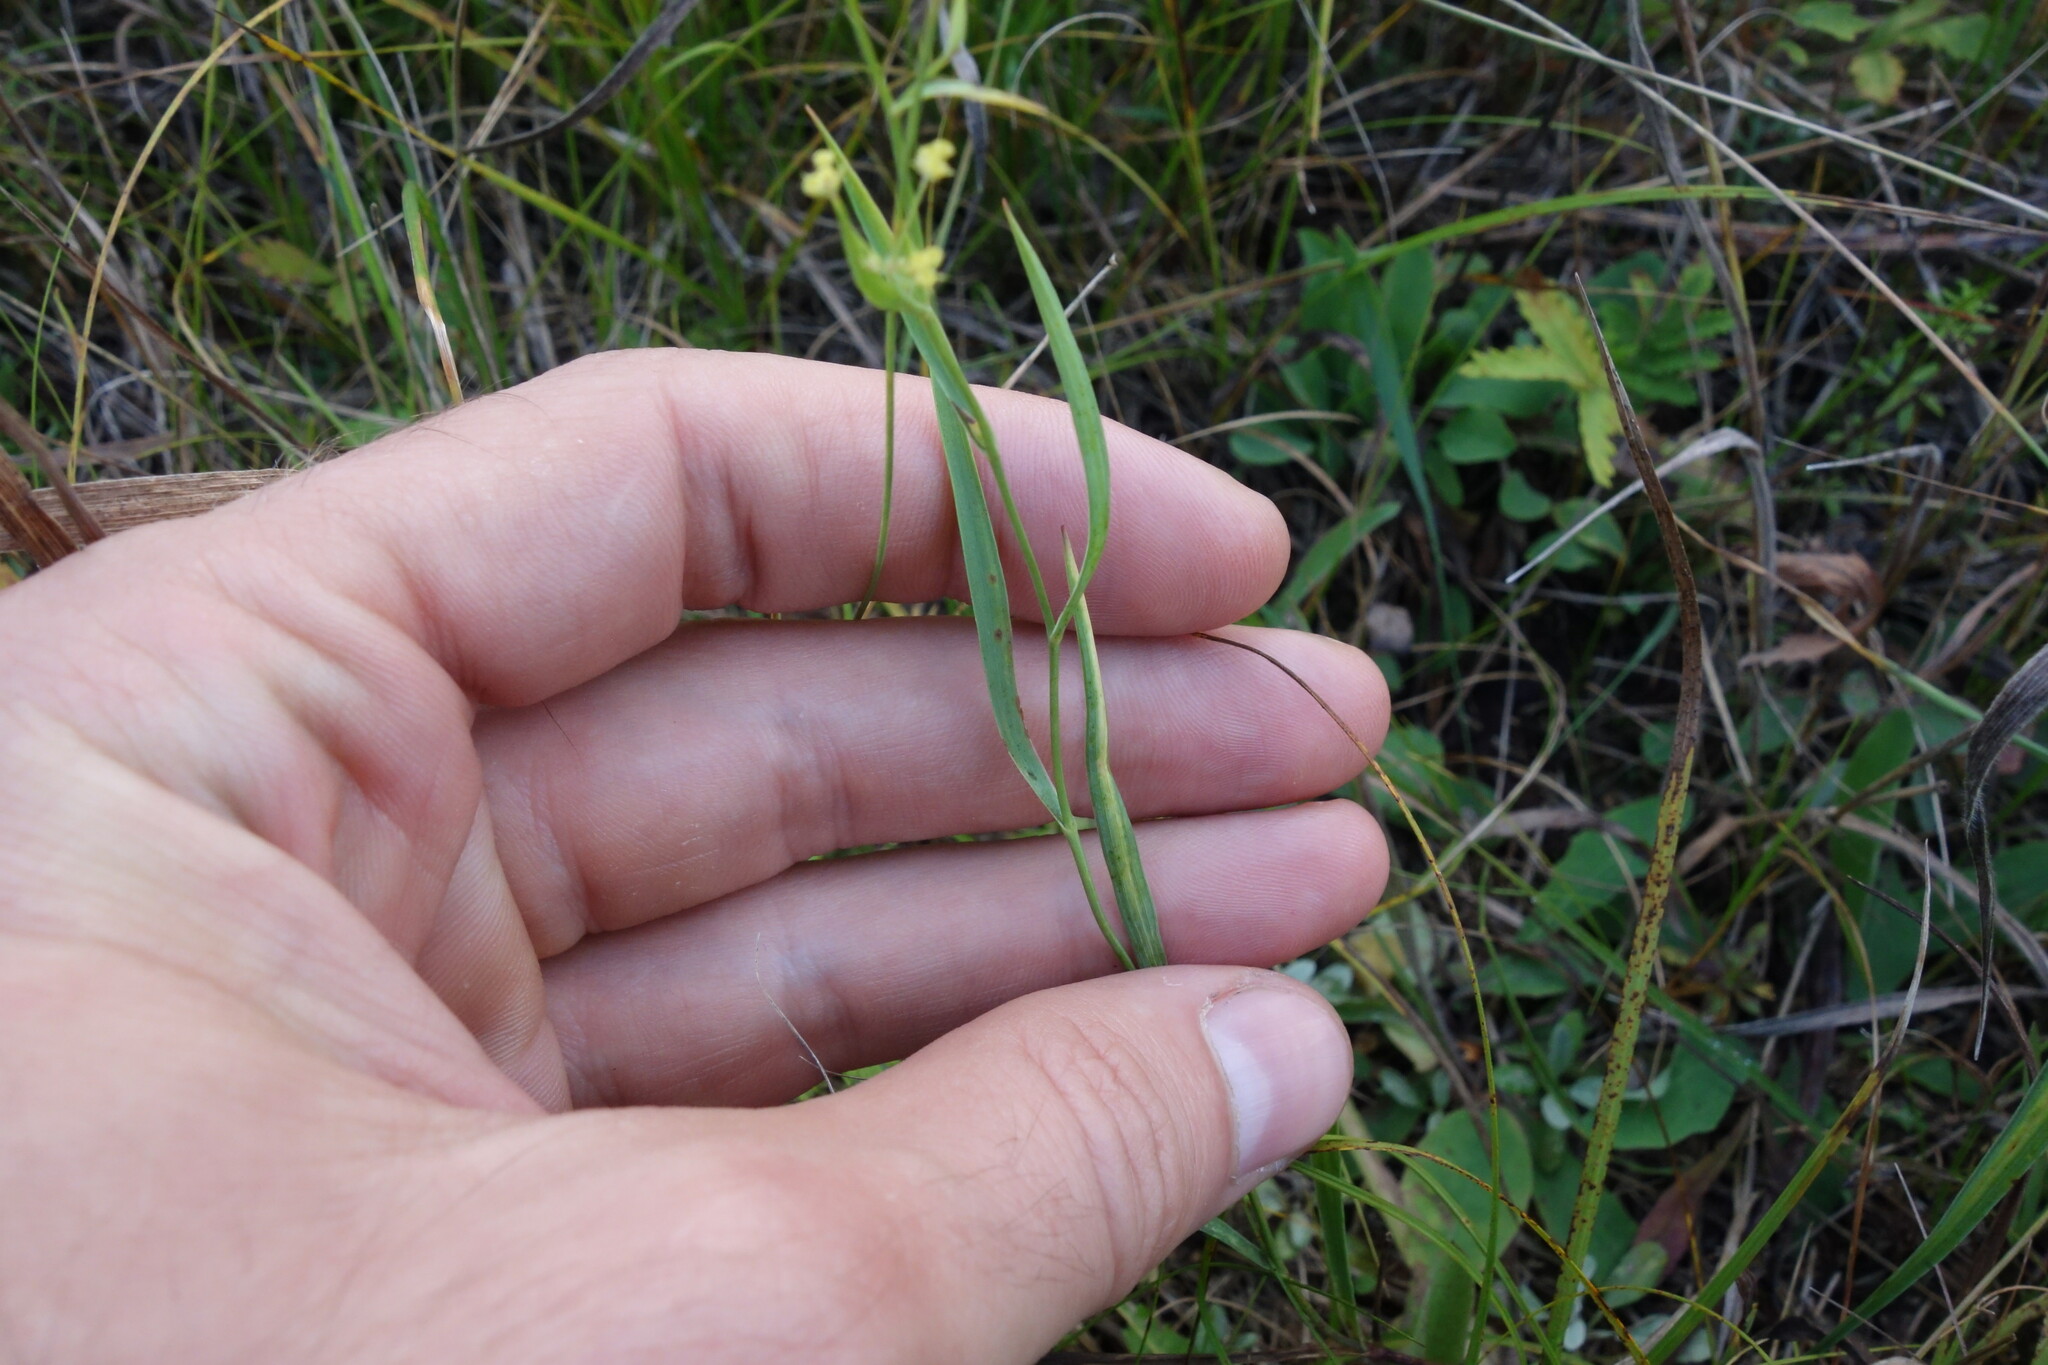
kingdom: Plantae
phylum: Tracheophyta
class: Magnoliopsida
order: Apiales
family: Apiaceae
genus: Bupleurum
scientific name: Bupleurum scorzonerifolium
